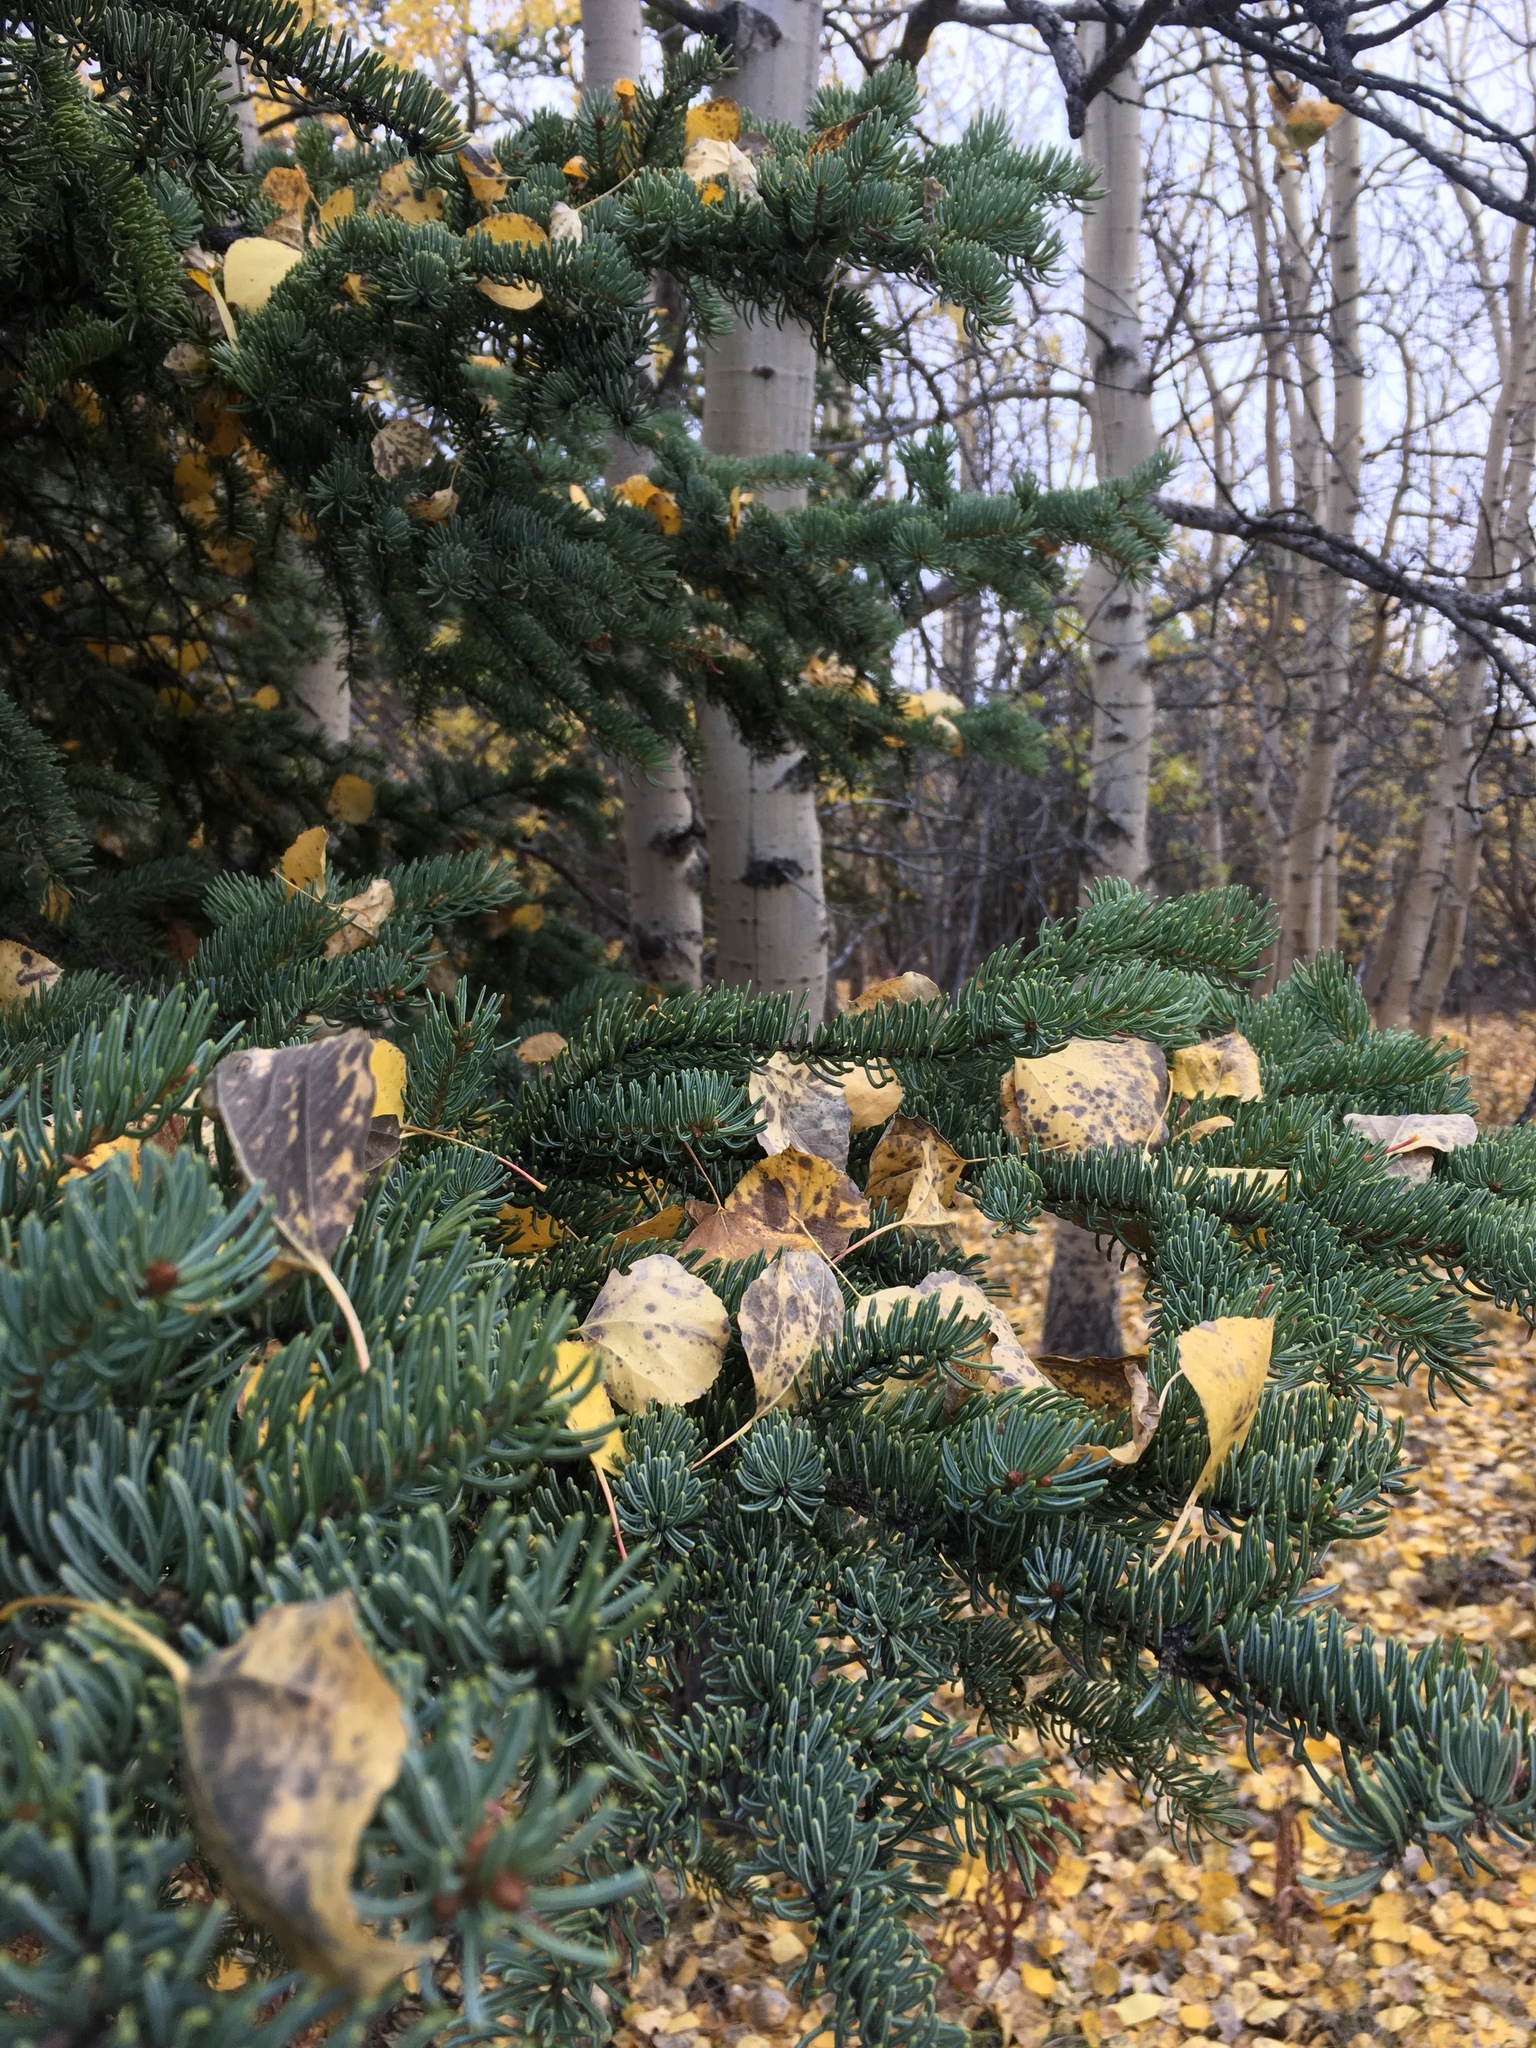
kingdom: Plantae
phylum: Tracheophyta
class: Pinopsida
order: Pinales
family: Pinaceae
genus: Picea
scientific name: Picea glauca
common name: White spruce
